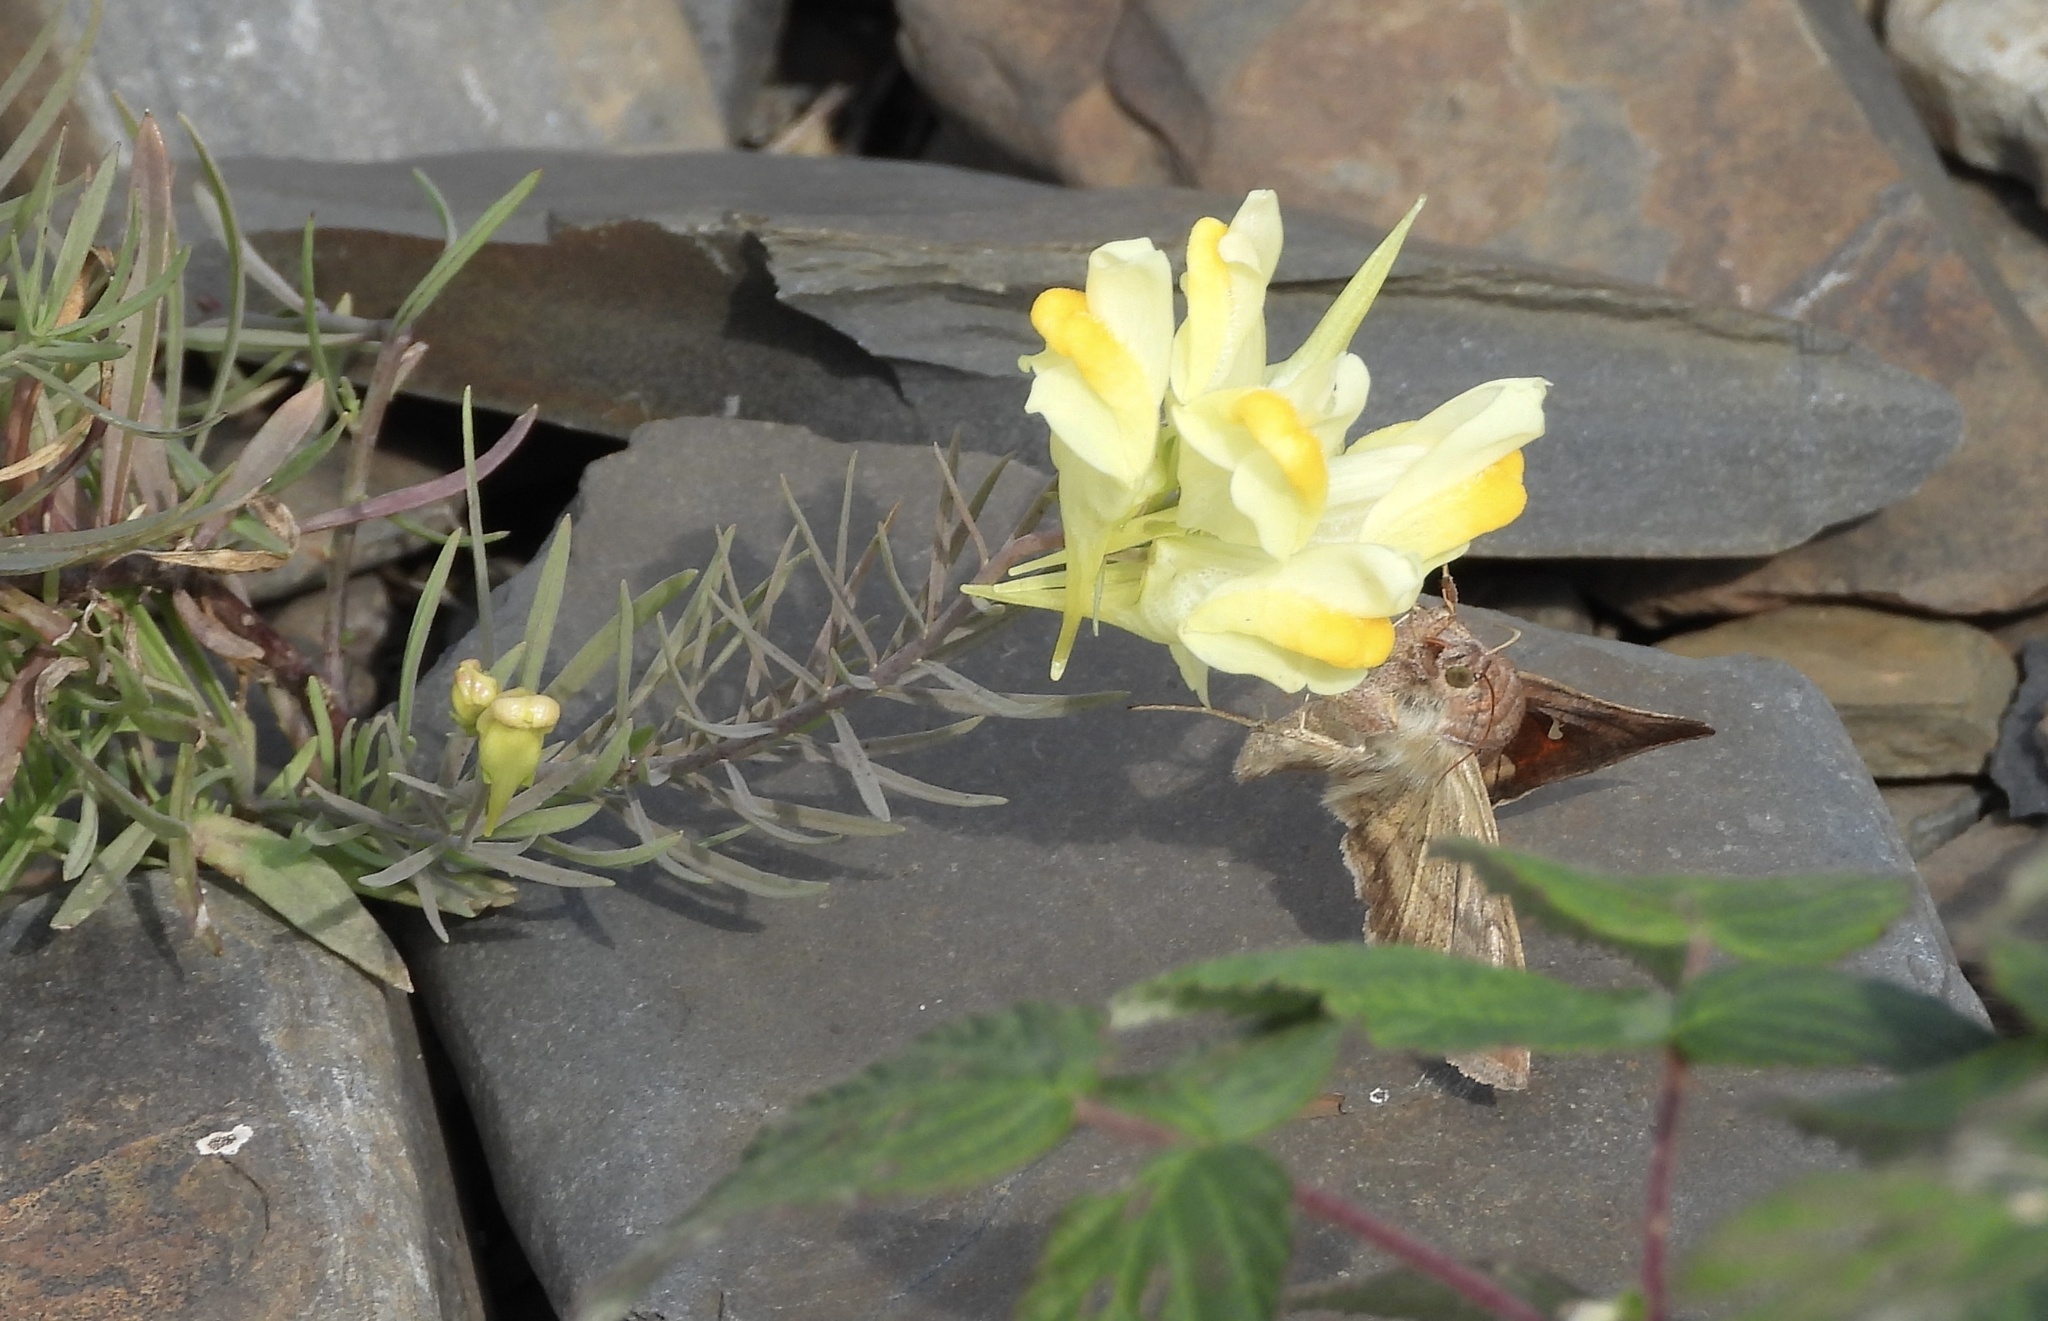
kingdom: Animalia
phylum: Arthropoda
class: Insecta
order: Lepidoptera
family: Noctuidae
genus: Anagrapha
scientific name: Anagrapha falcifera
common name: Celery looper
